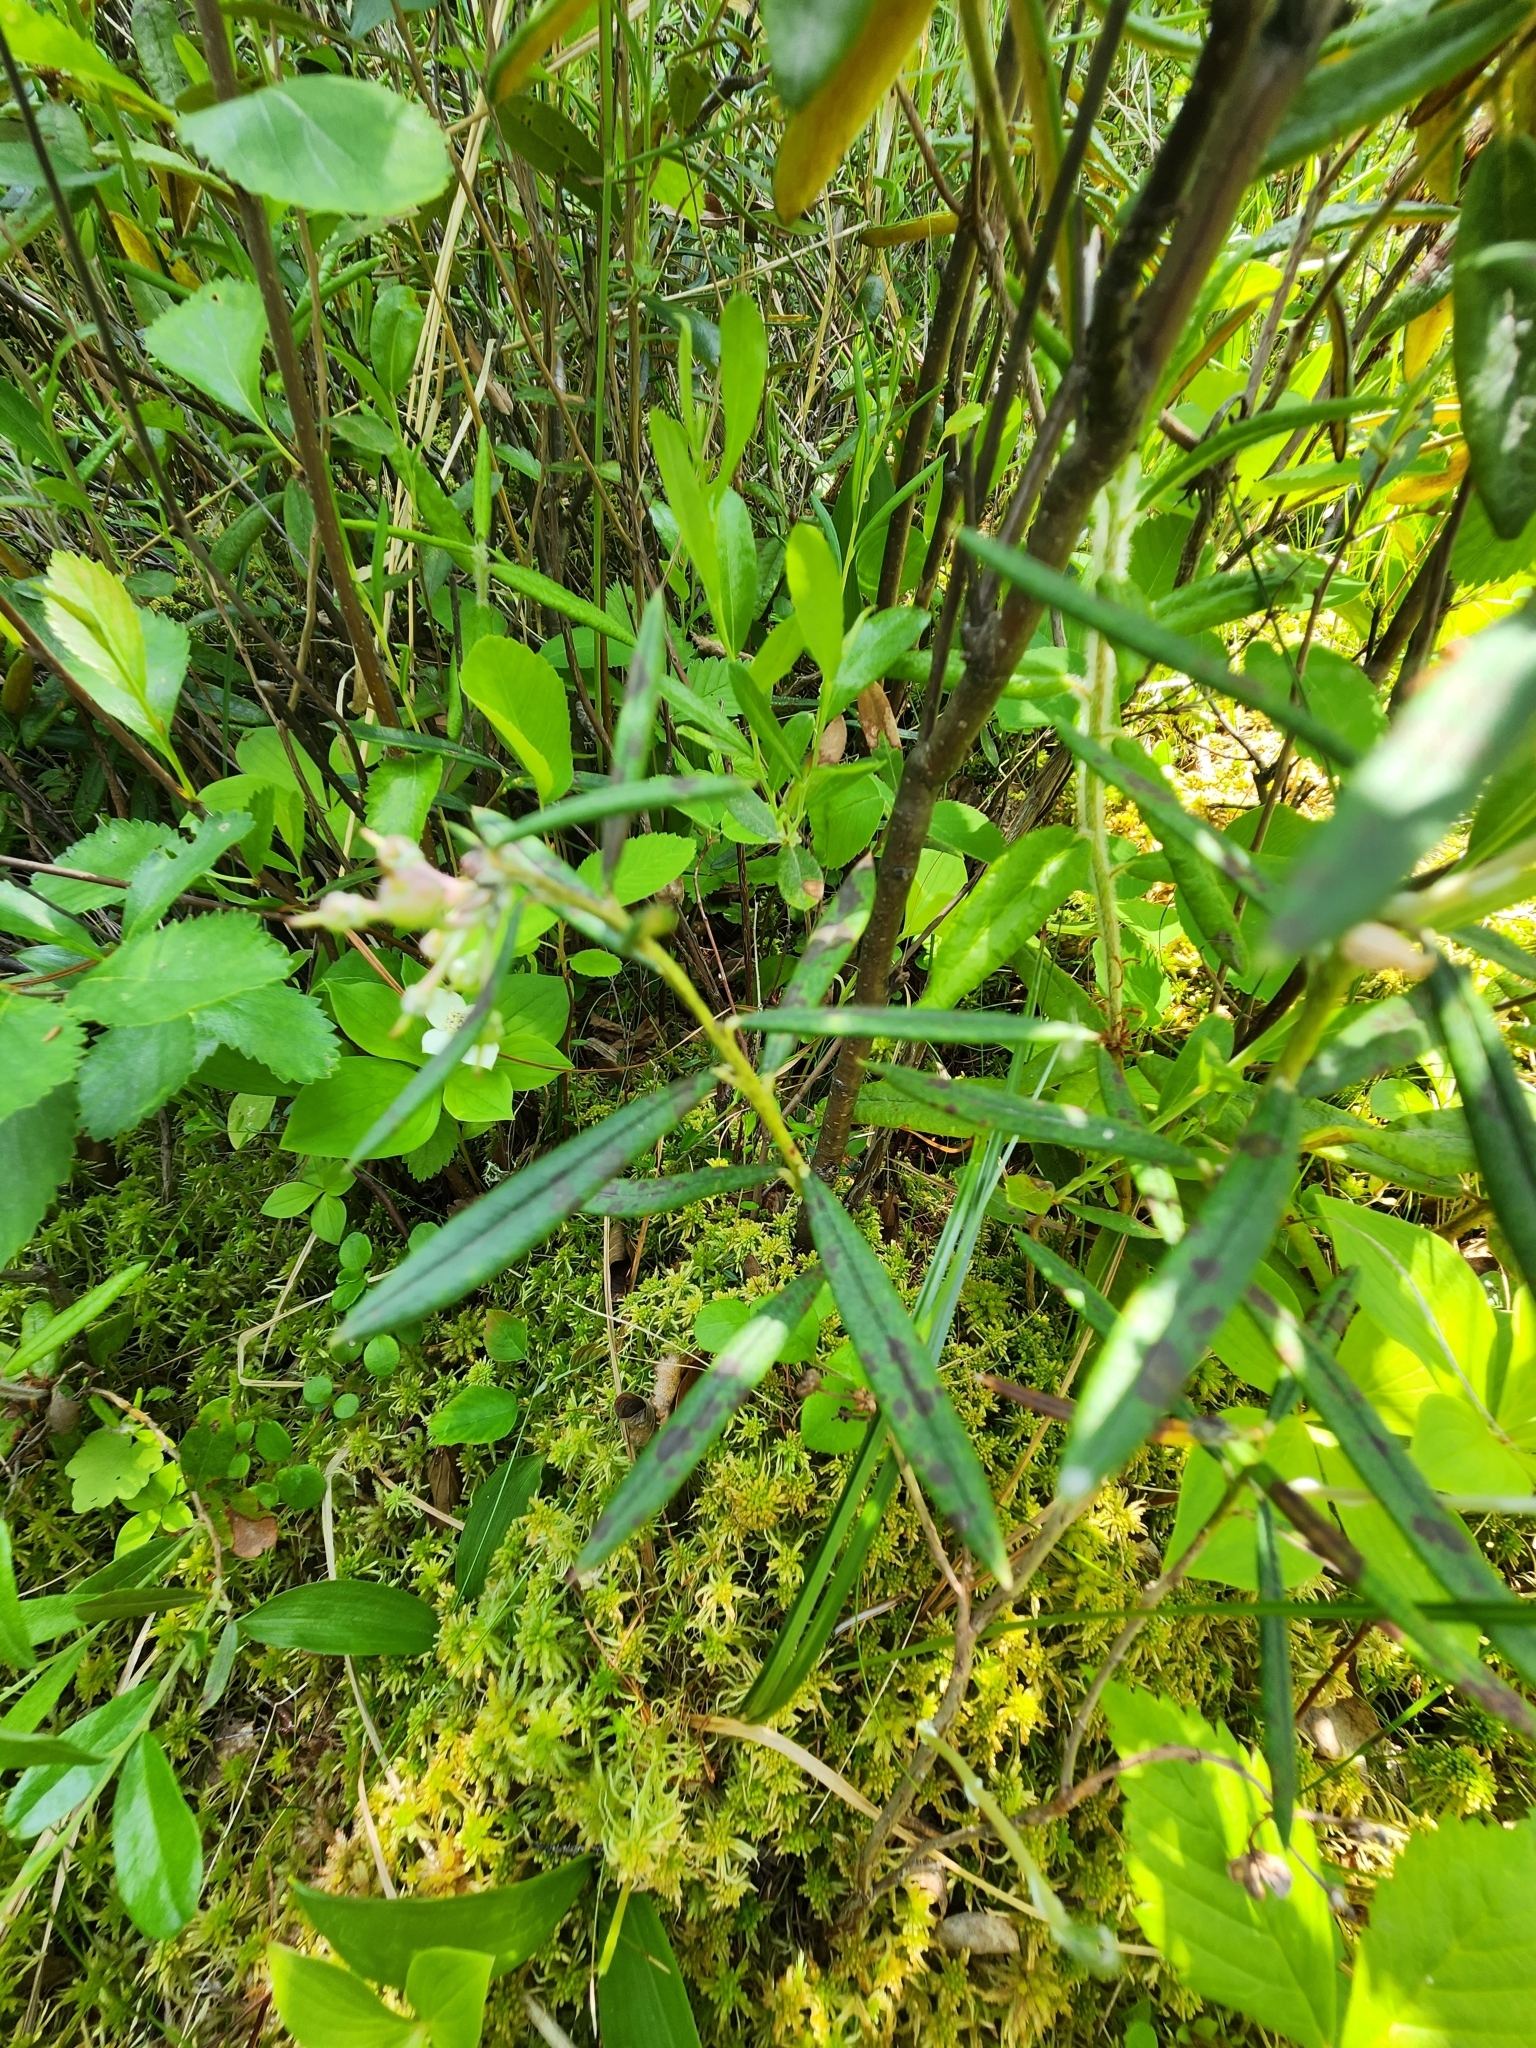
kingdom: Plantae
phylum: Tracheophyta
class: Magnoliopsida
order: Ericales
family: Ericaceae
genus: Andromeda
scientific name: Andromeda polifolia
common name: Bog-rosemary
